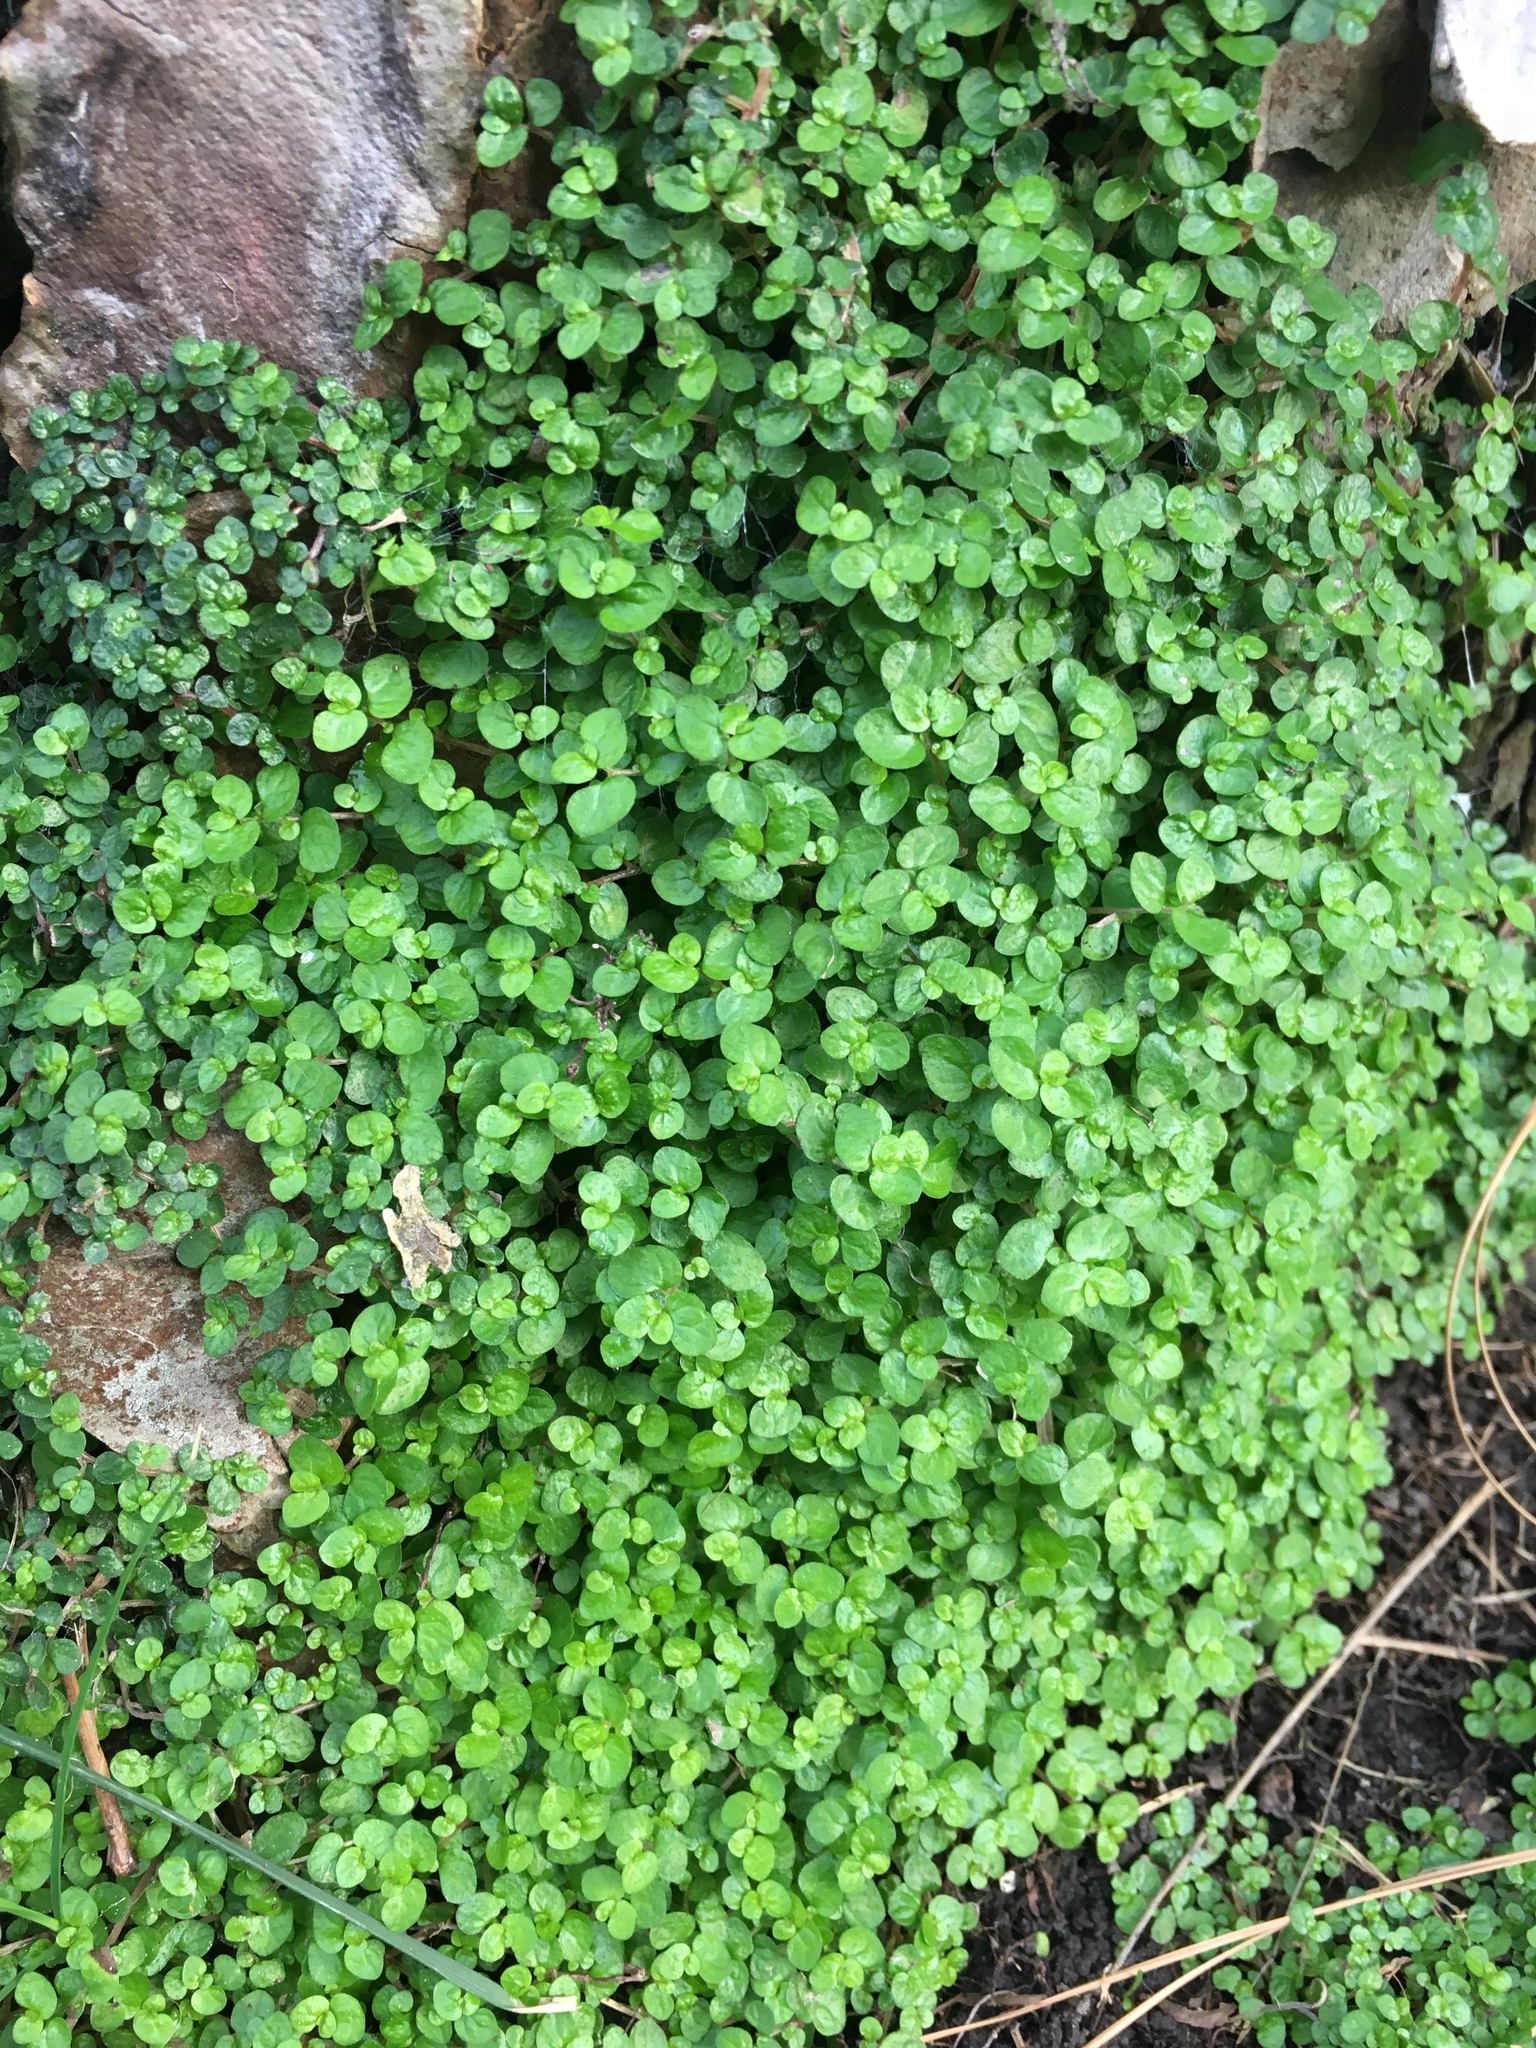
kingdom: Plantae
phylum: Tracheophyta
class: Magnoliopsida
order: Rosales
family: Urticaceae
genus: Soleirolia
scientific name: Soleirolia soleirolii
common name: Mind-your-own-business
